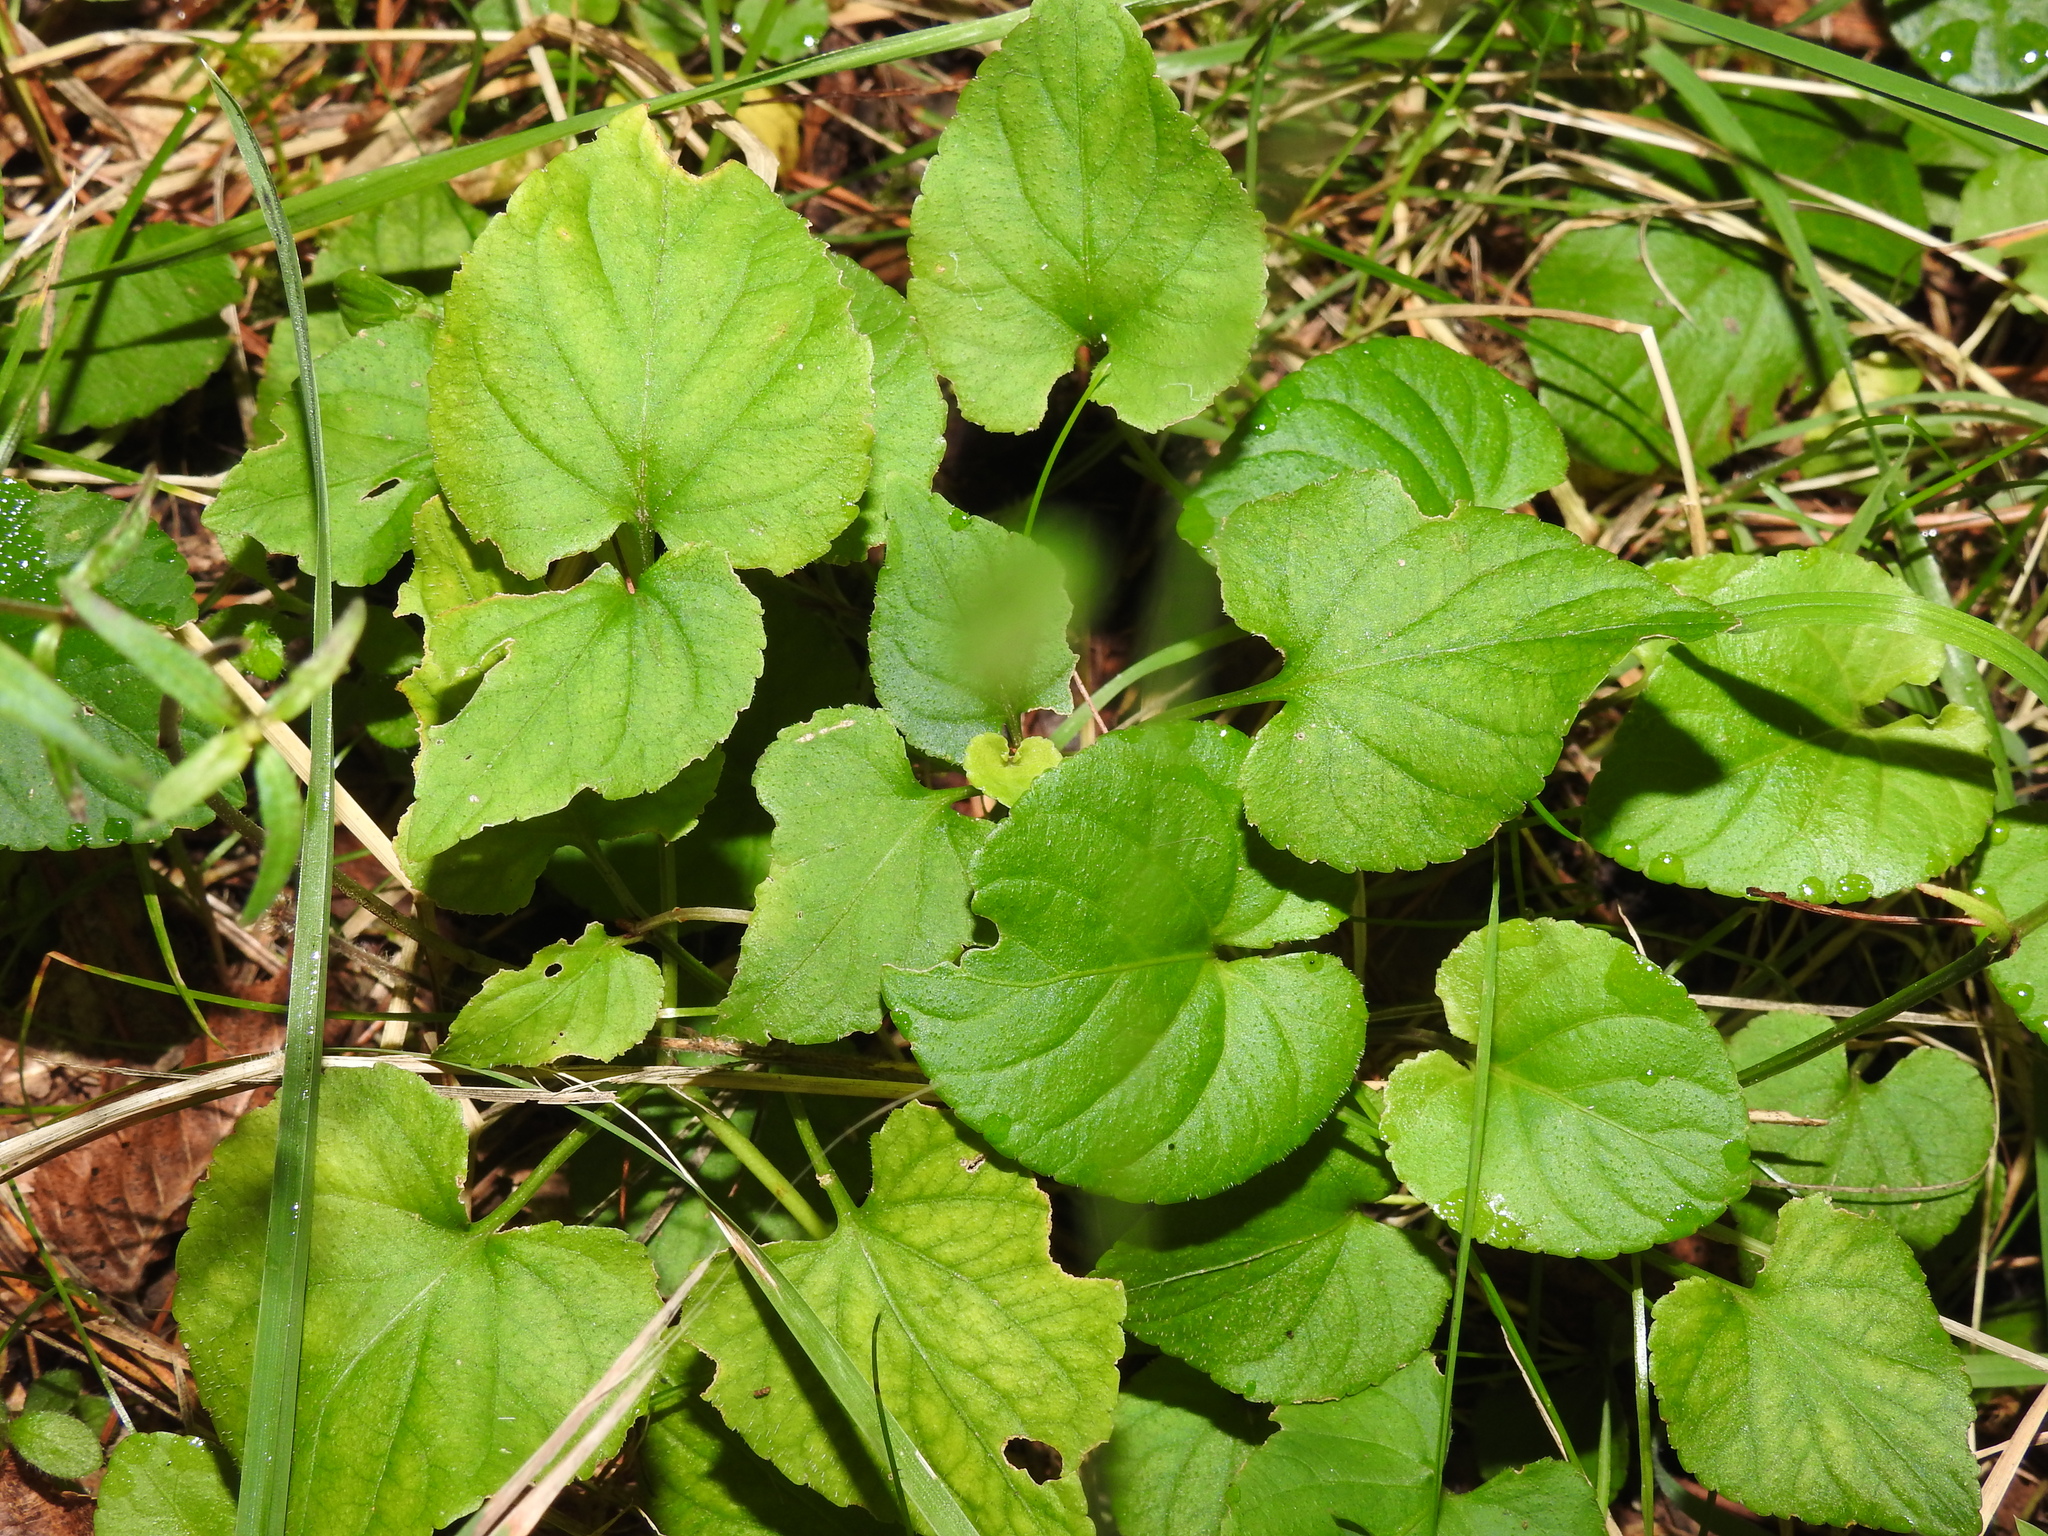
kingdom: Plantae
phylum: Tracheophyta
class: Magnoliopsida
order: Malpighiales
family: Violaceae
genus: Viola
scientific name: Viola odorata
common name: Sweet violet
